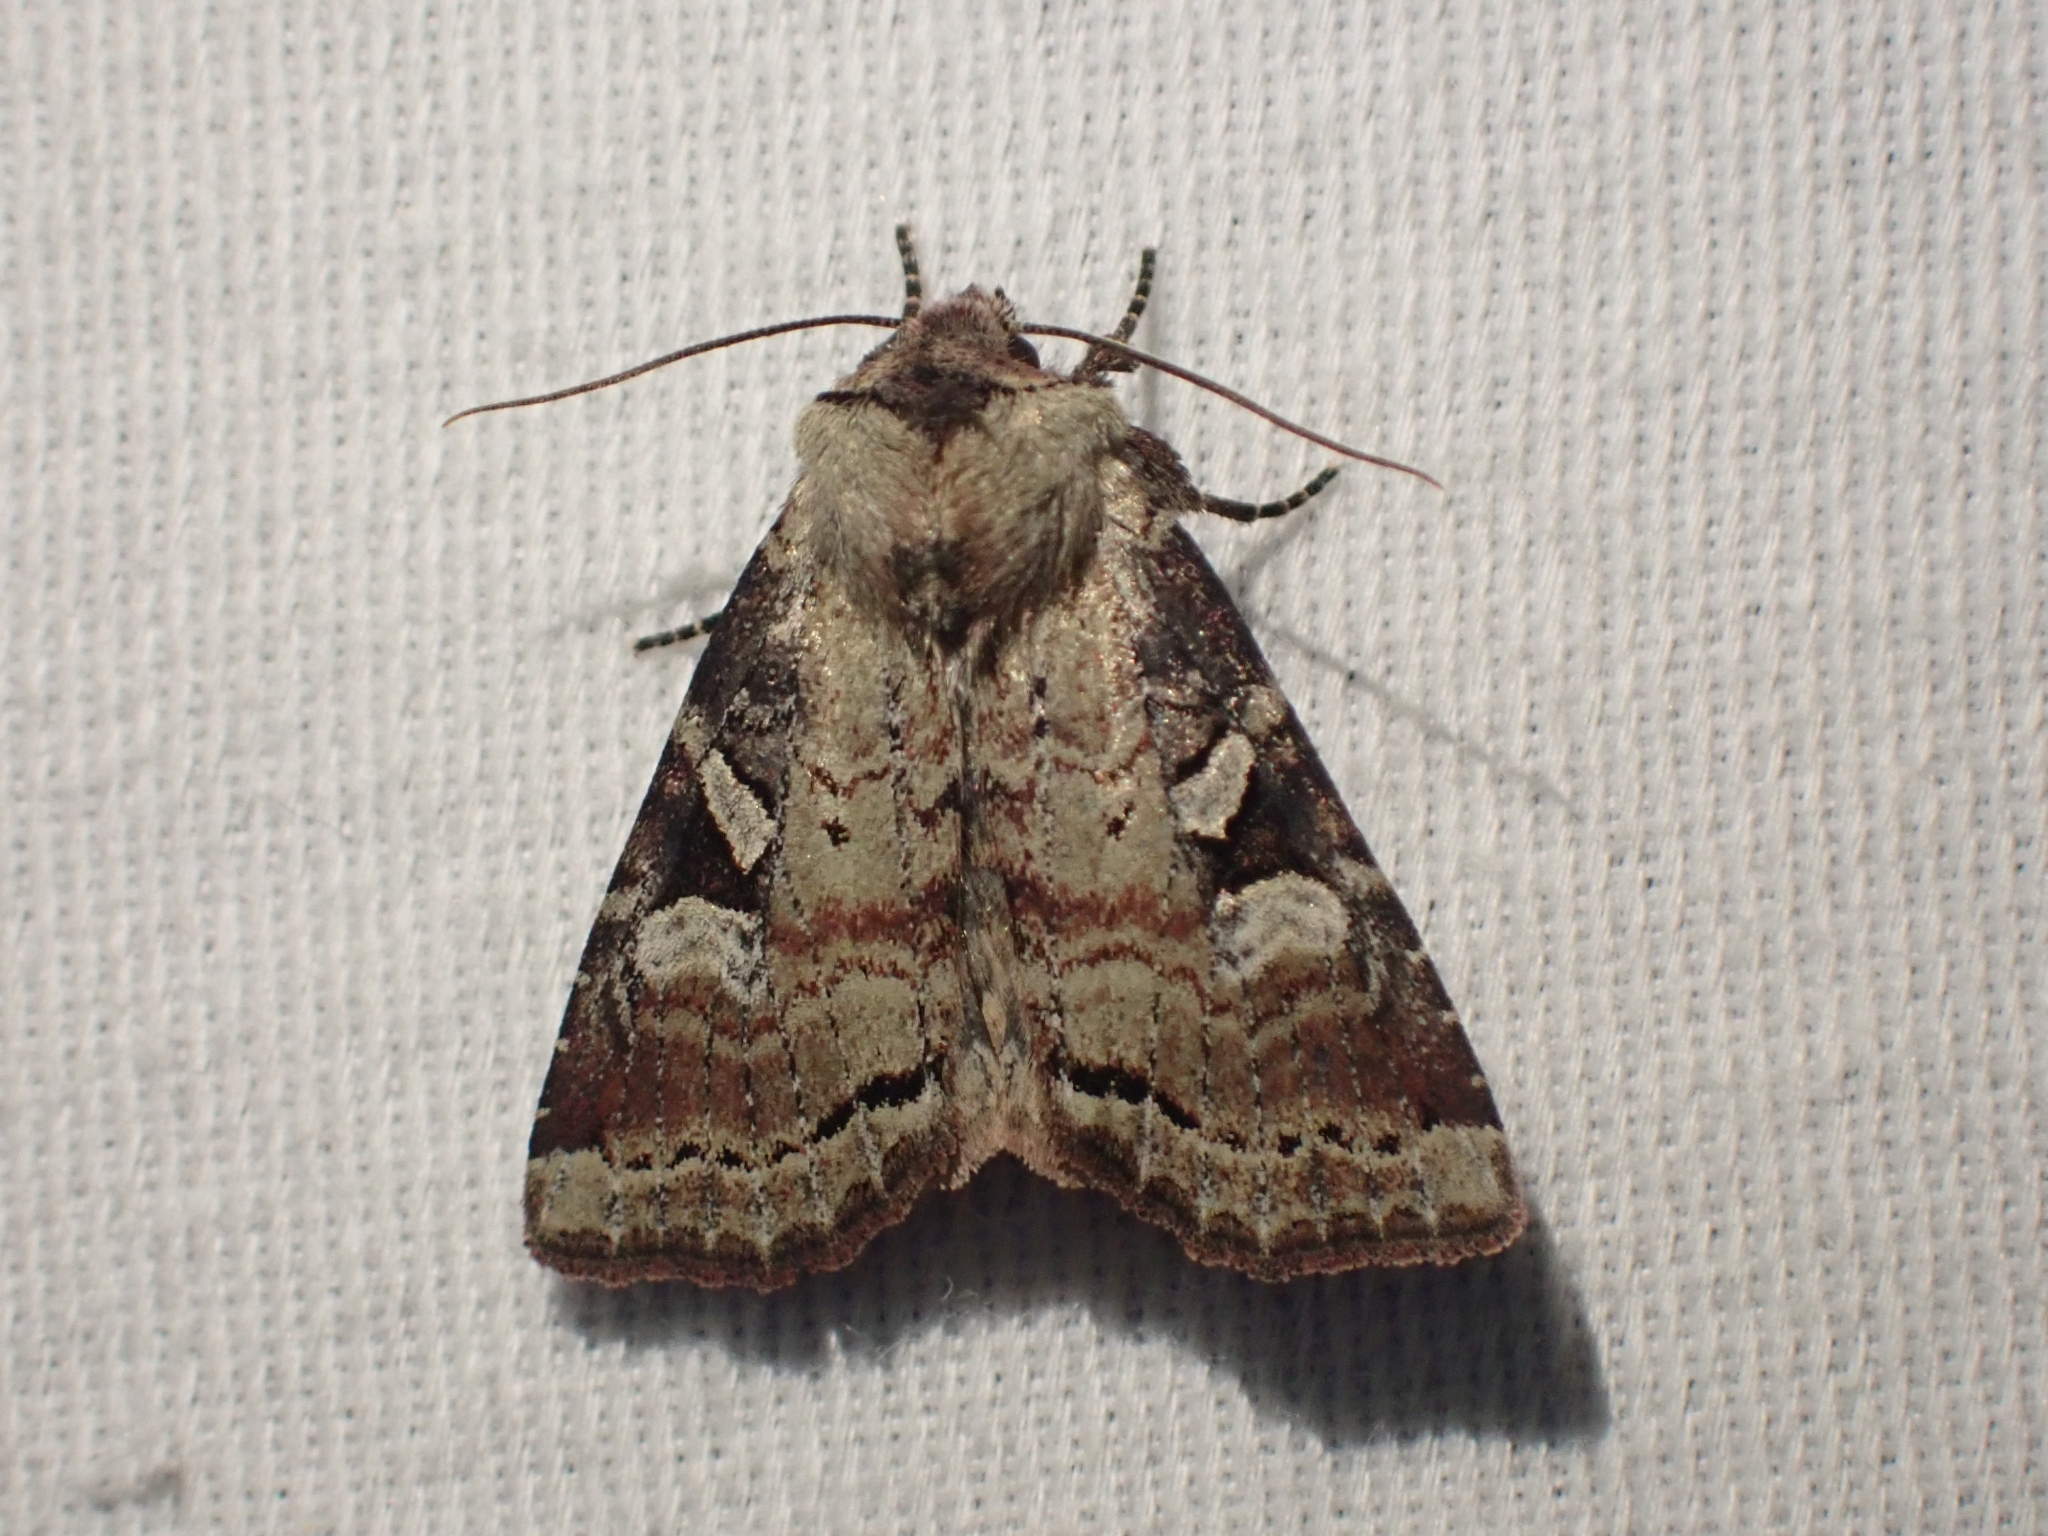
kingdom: Animalia
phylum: Arthropoda
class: Insecta
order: Lepidoptera
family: Noctuidae
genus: Hillia
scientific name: Hillia iris
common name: Iris rover moth
